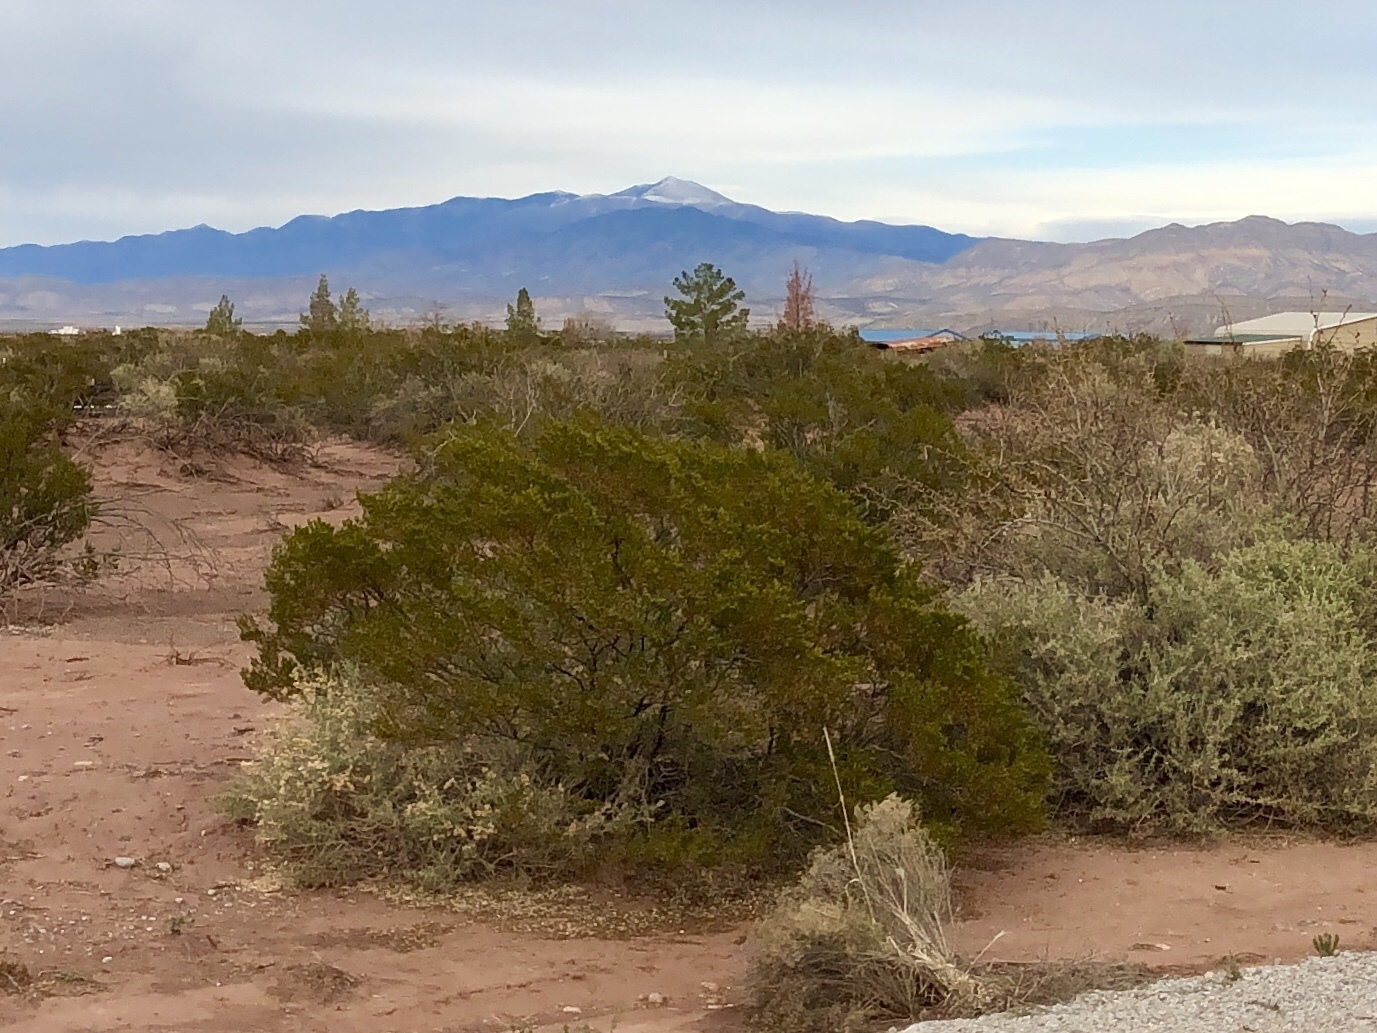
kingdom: Plantae
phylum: Tracheophyta
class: Magnoliopsida
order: Zygophyllales
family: Zygophyllaceae
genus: Larrea
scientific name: Larrea tridentata
